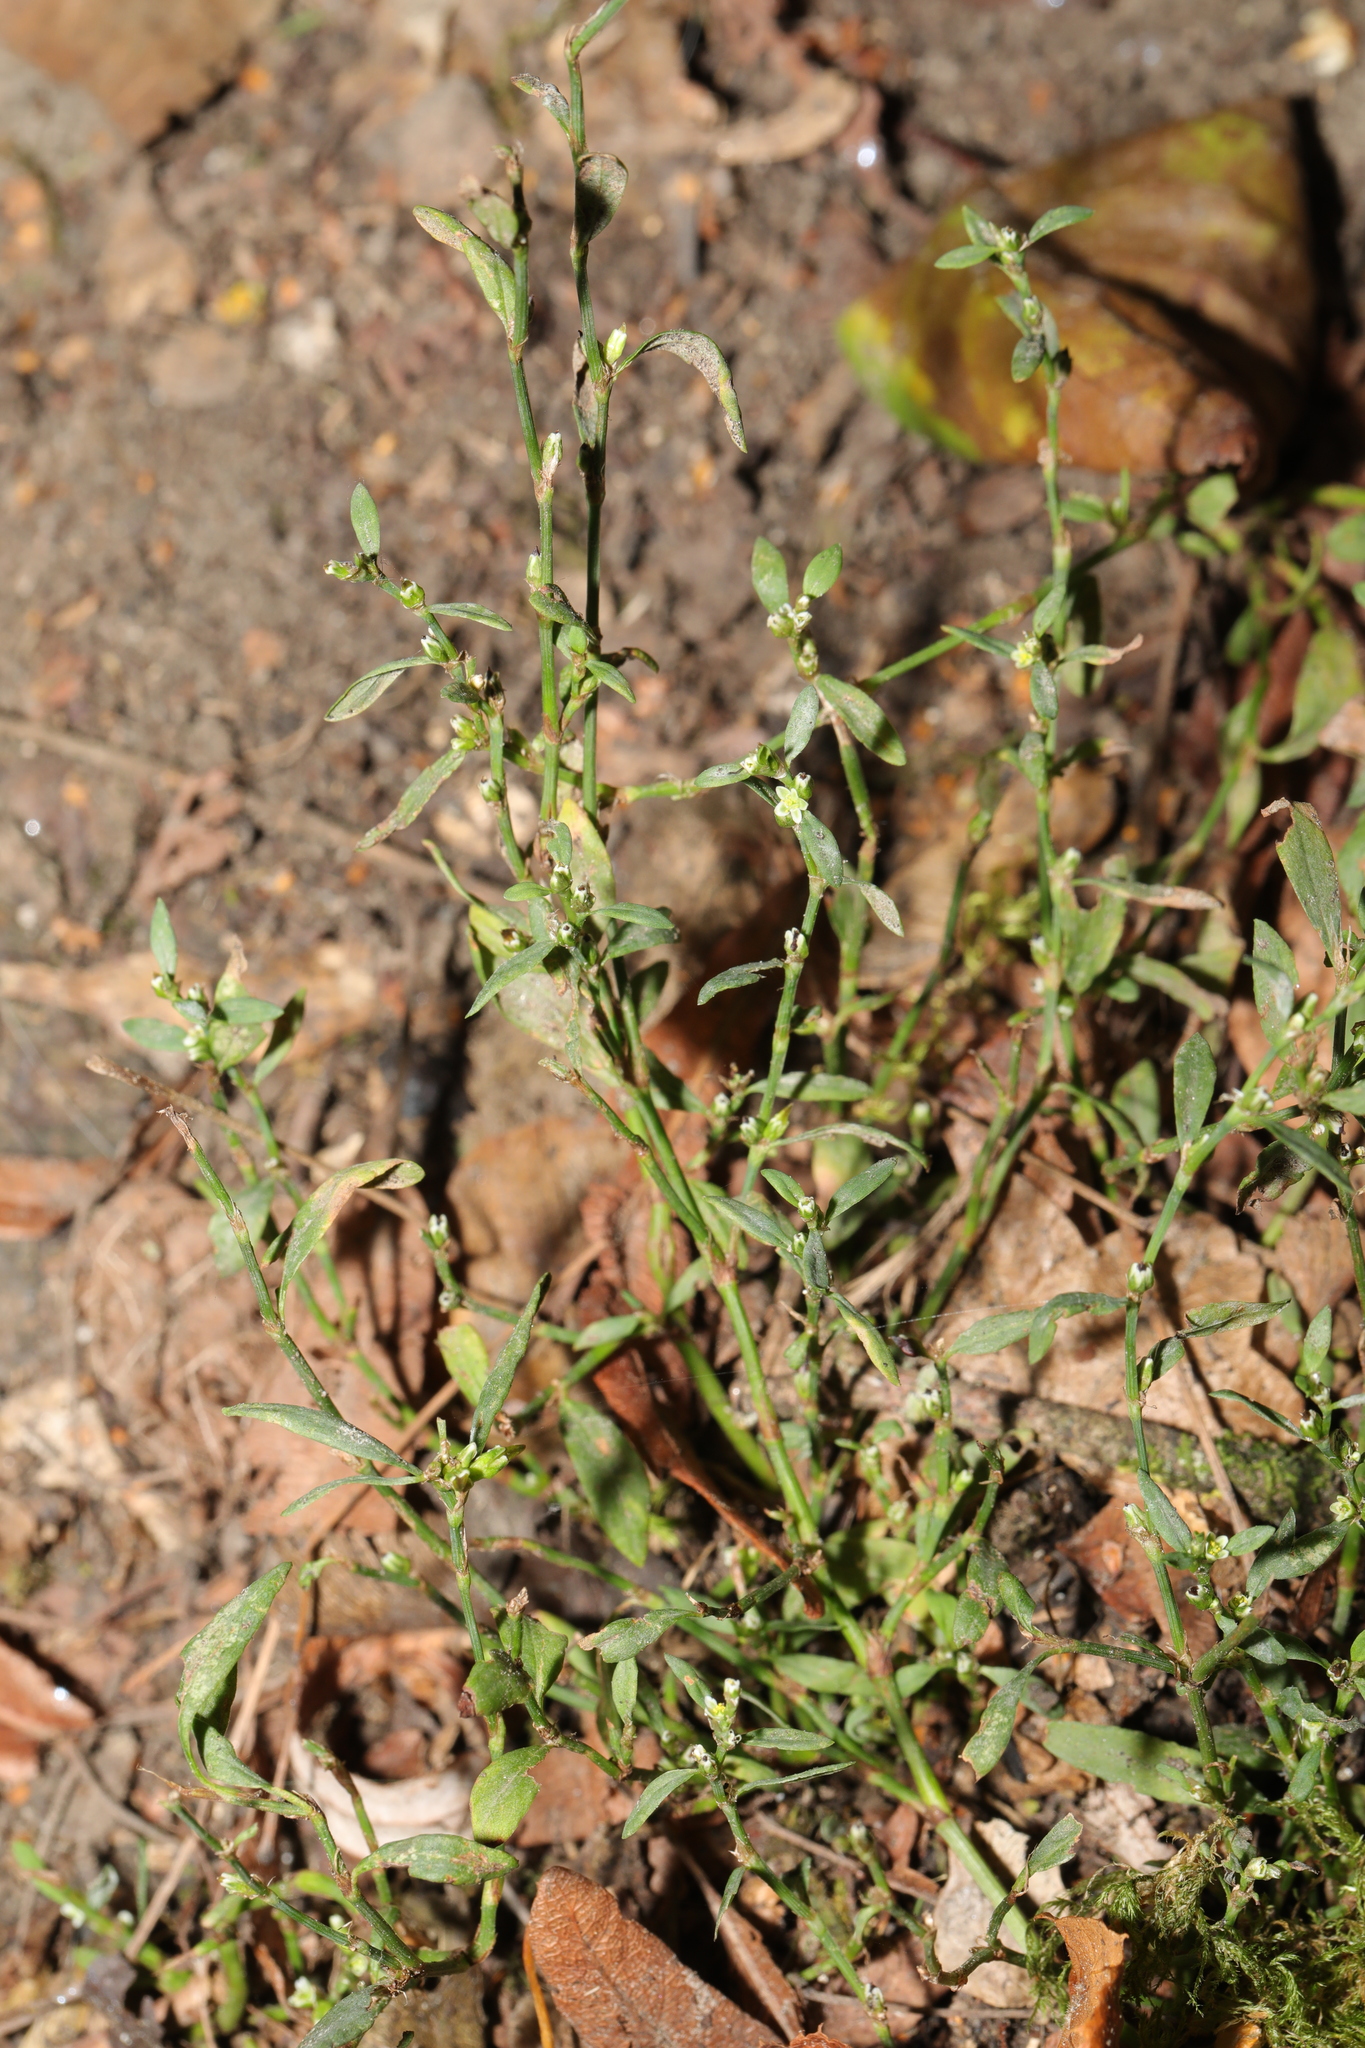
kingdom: Plantae
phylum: Tracheophyta
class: Magnoliopsida
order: Caryophyllales
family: Polygonaceae
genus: Polygonum
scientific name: Polygonum aviculare
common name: Prostrate knotweed
